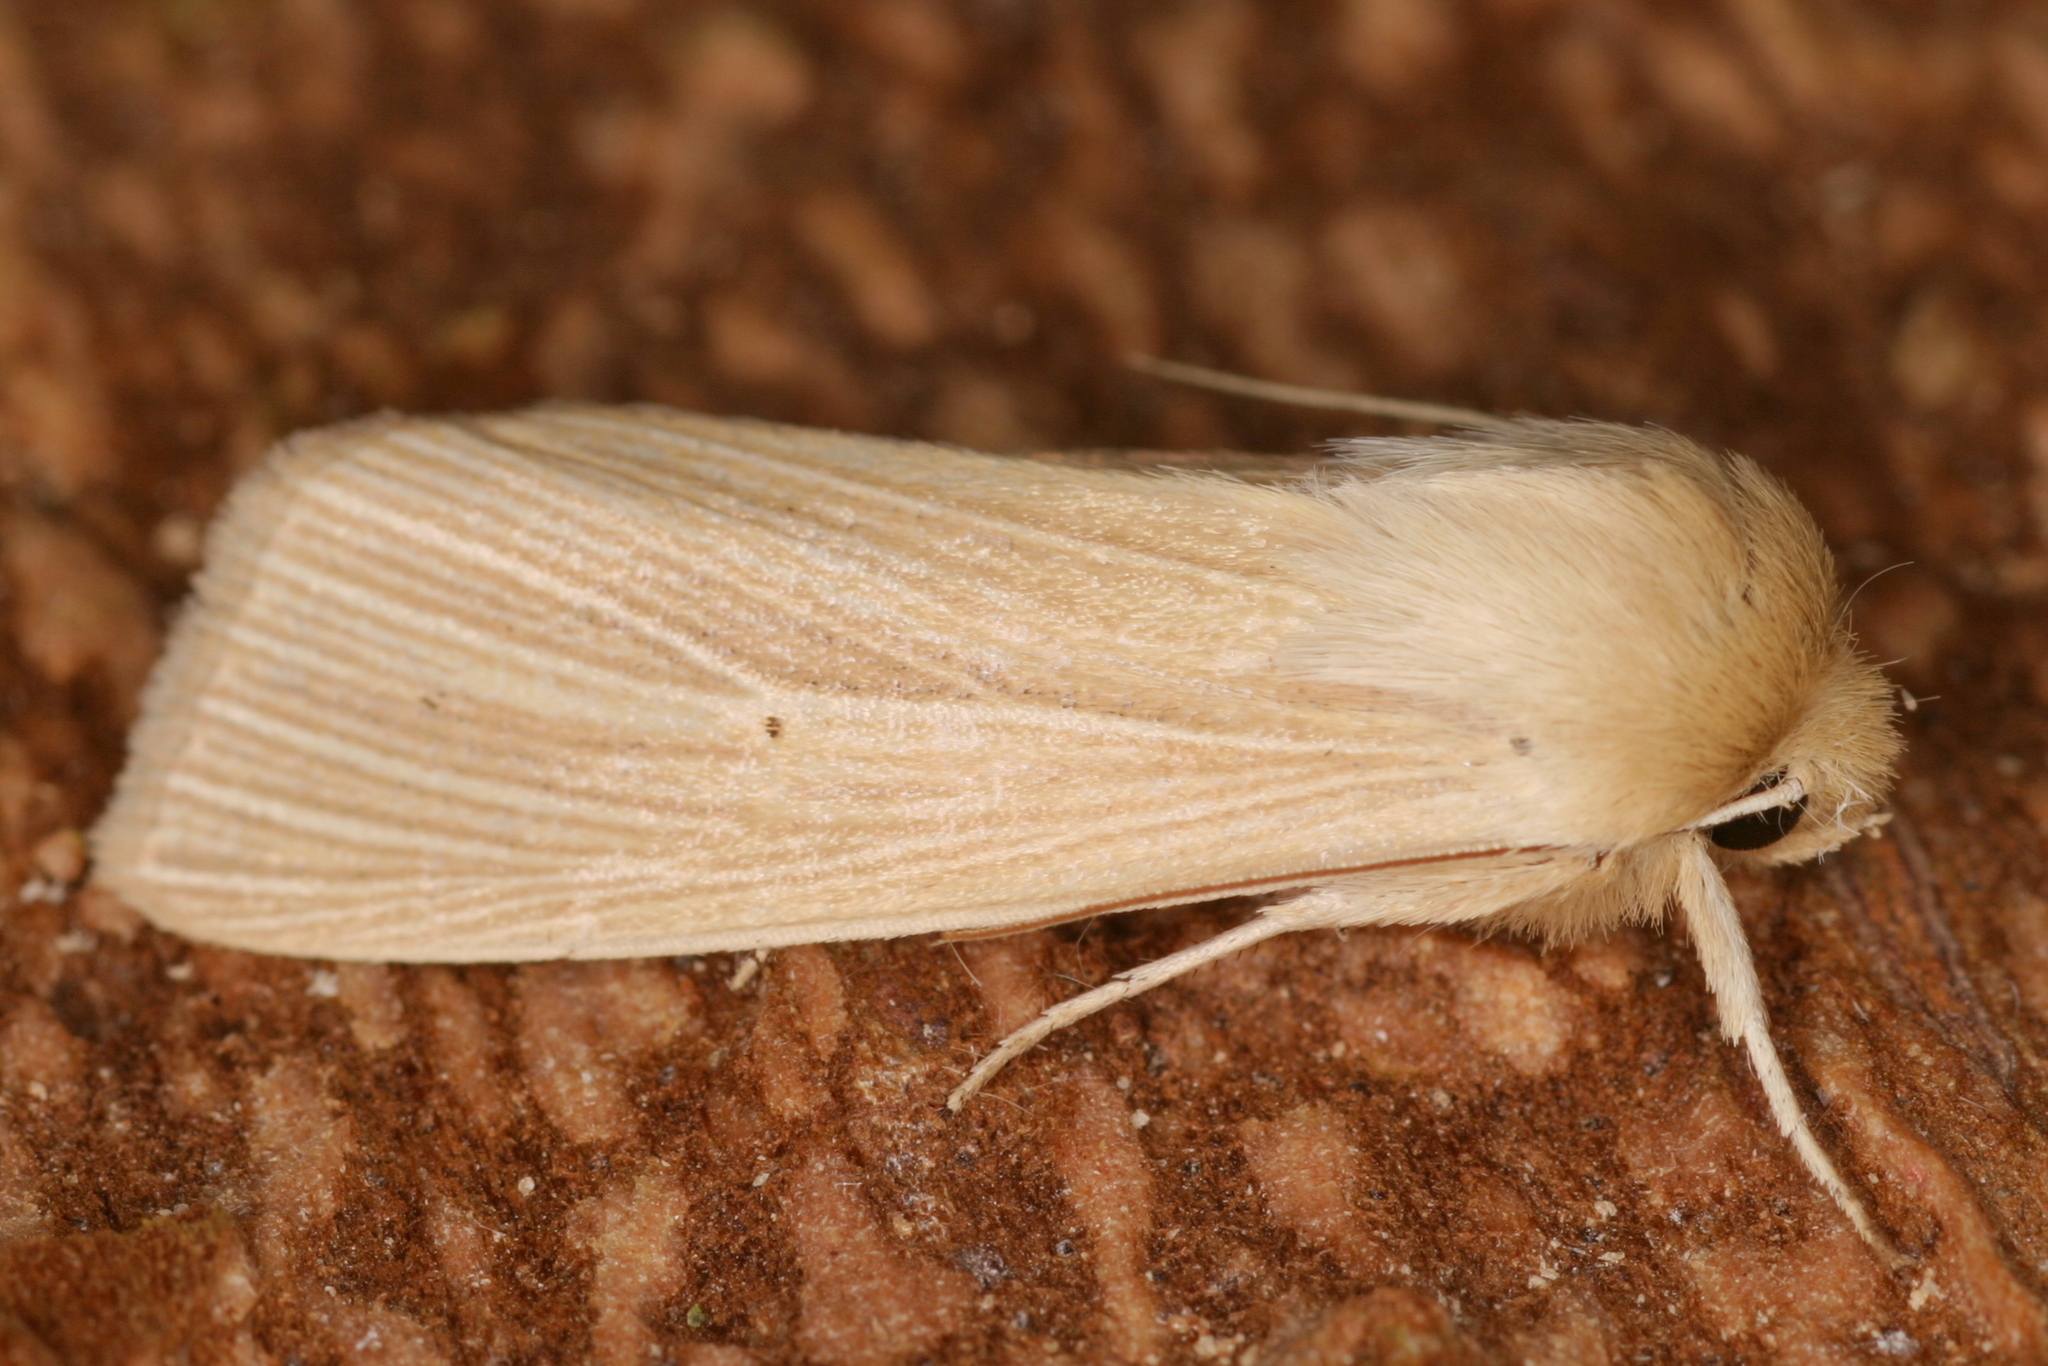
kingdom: Animalia
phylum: Arthropoda
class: Insecta
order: Lepidoptera
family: Noctuidae
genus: Mythimna
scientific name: Mythimna pallens
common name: Common wainscot
